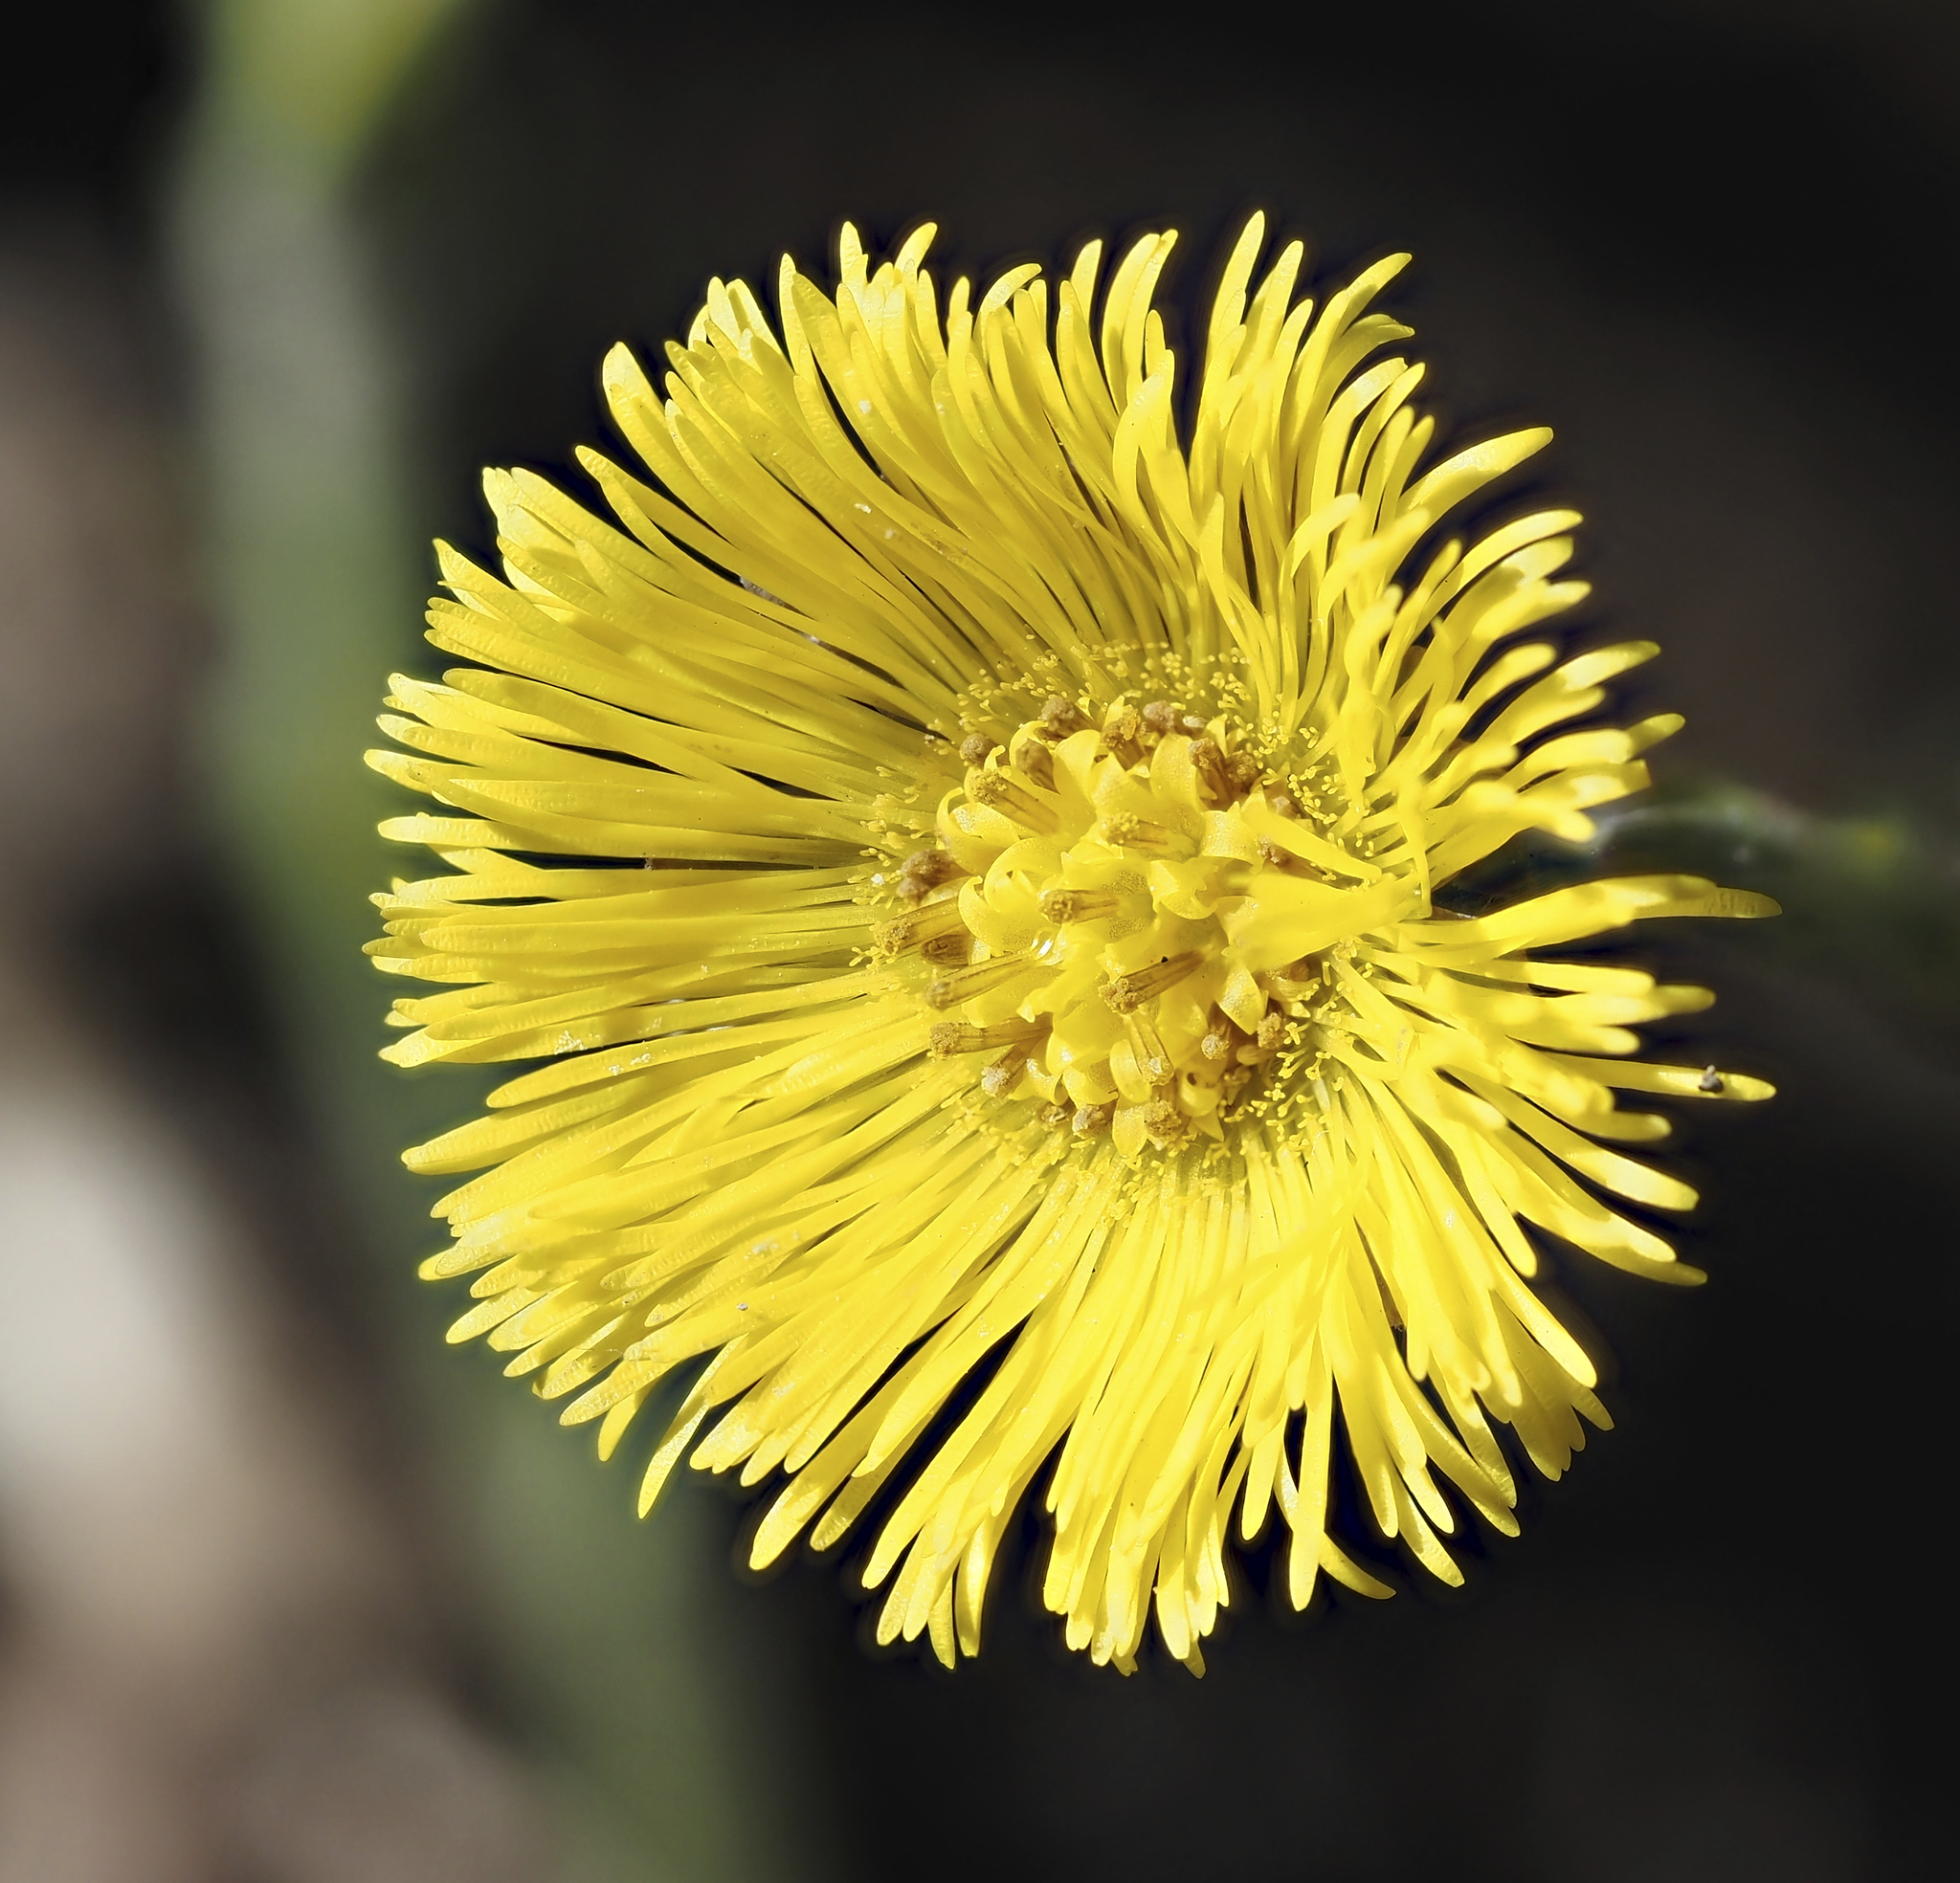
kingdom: Plantae
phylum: Tracheophyta
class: Magnoliopsida
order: Asterales
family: Asteraceae
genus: Tussilago
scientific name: Tussilago farfara
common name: Coltsfoot
